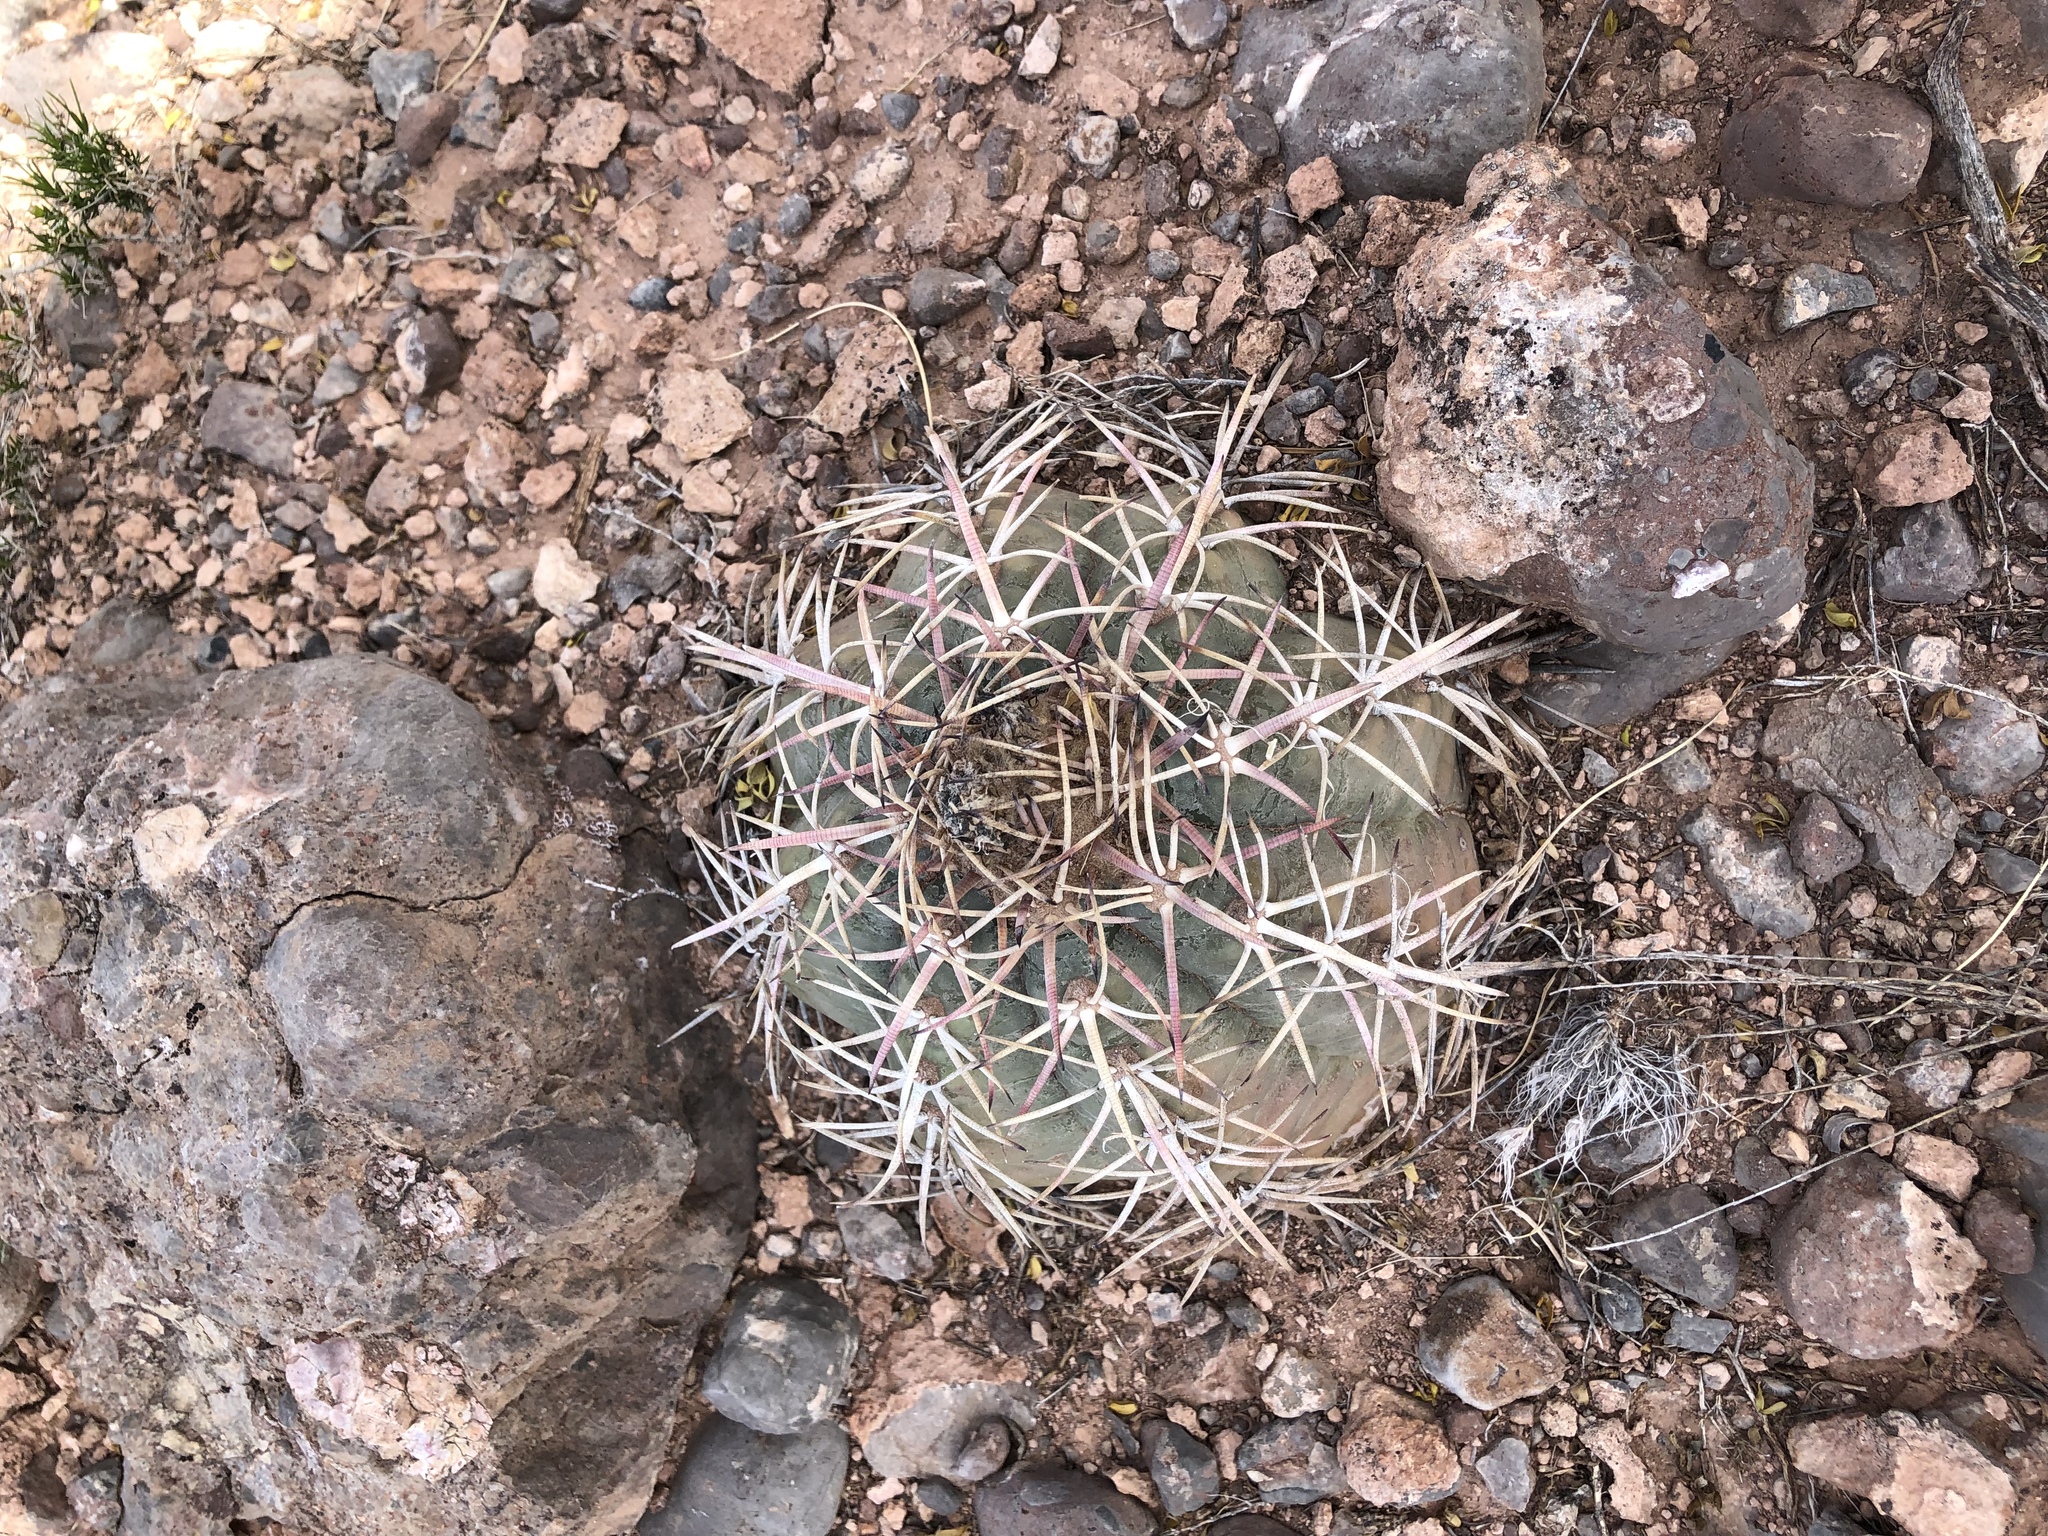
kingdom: Plantae
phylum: Tracheophyta
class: Magnoliopsida
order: Caryophyllales
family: Cactaceae
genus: Echinocactus
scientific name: Echinocactus horizonthalonius
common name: Devilshead
